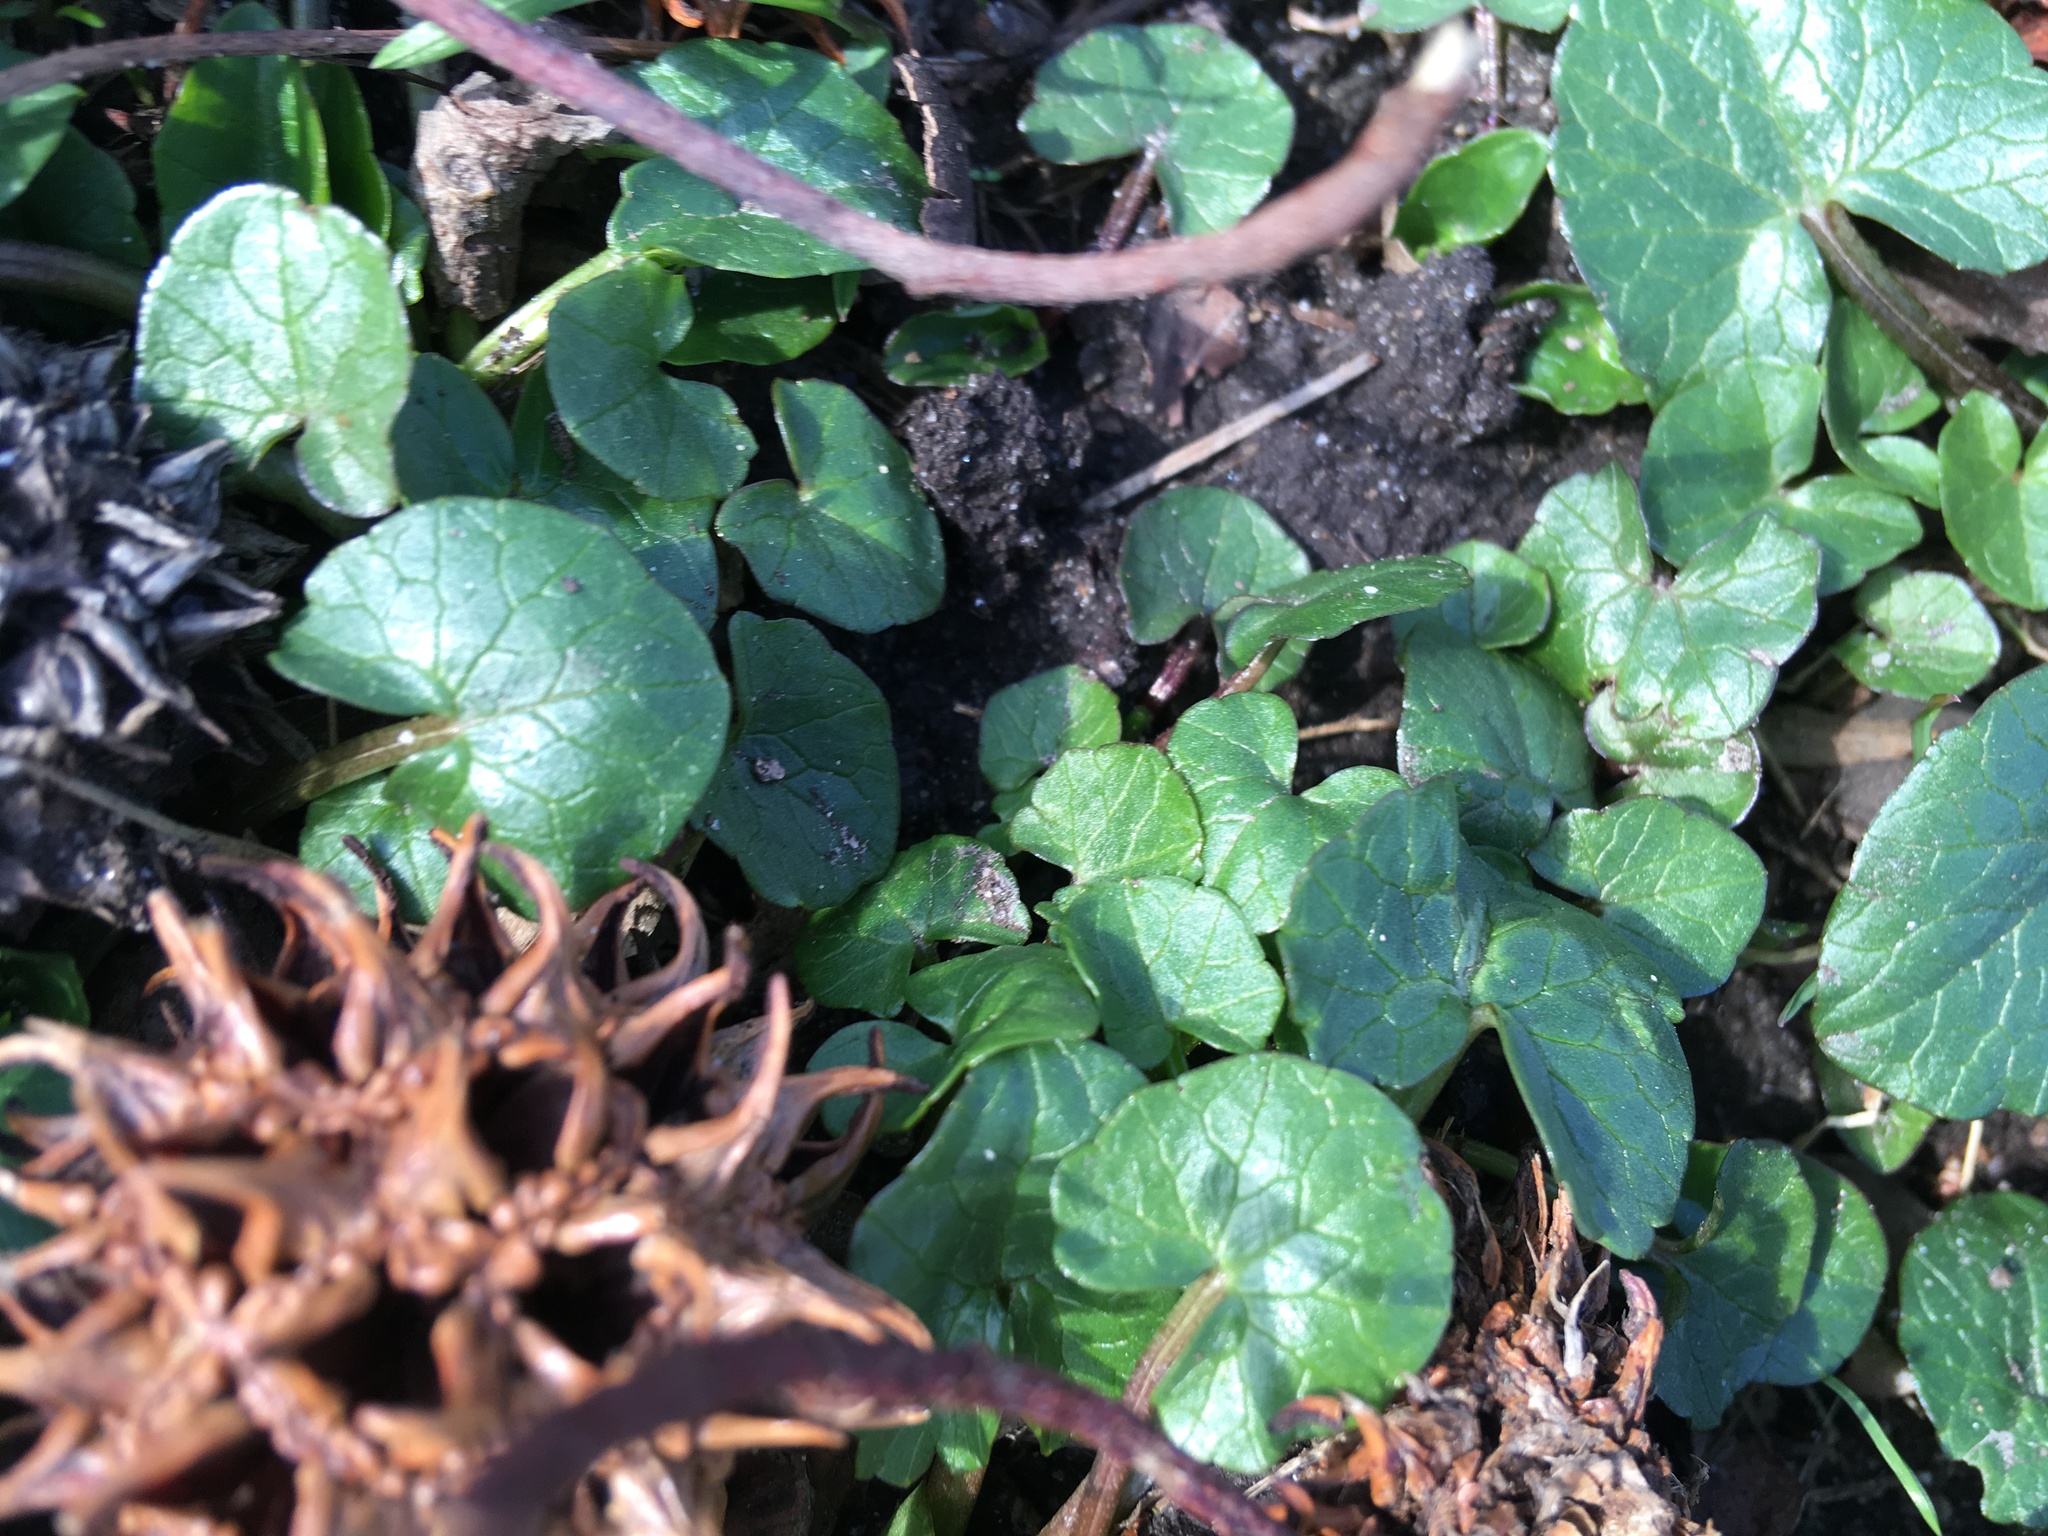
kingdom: Plantae
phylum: Tracheophyta
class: Magnoliopsida
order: Ranunculales
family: Ranunculaceae
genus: Ficaria
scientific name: Ficaria verna
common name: Lesser celandine
